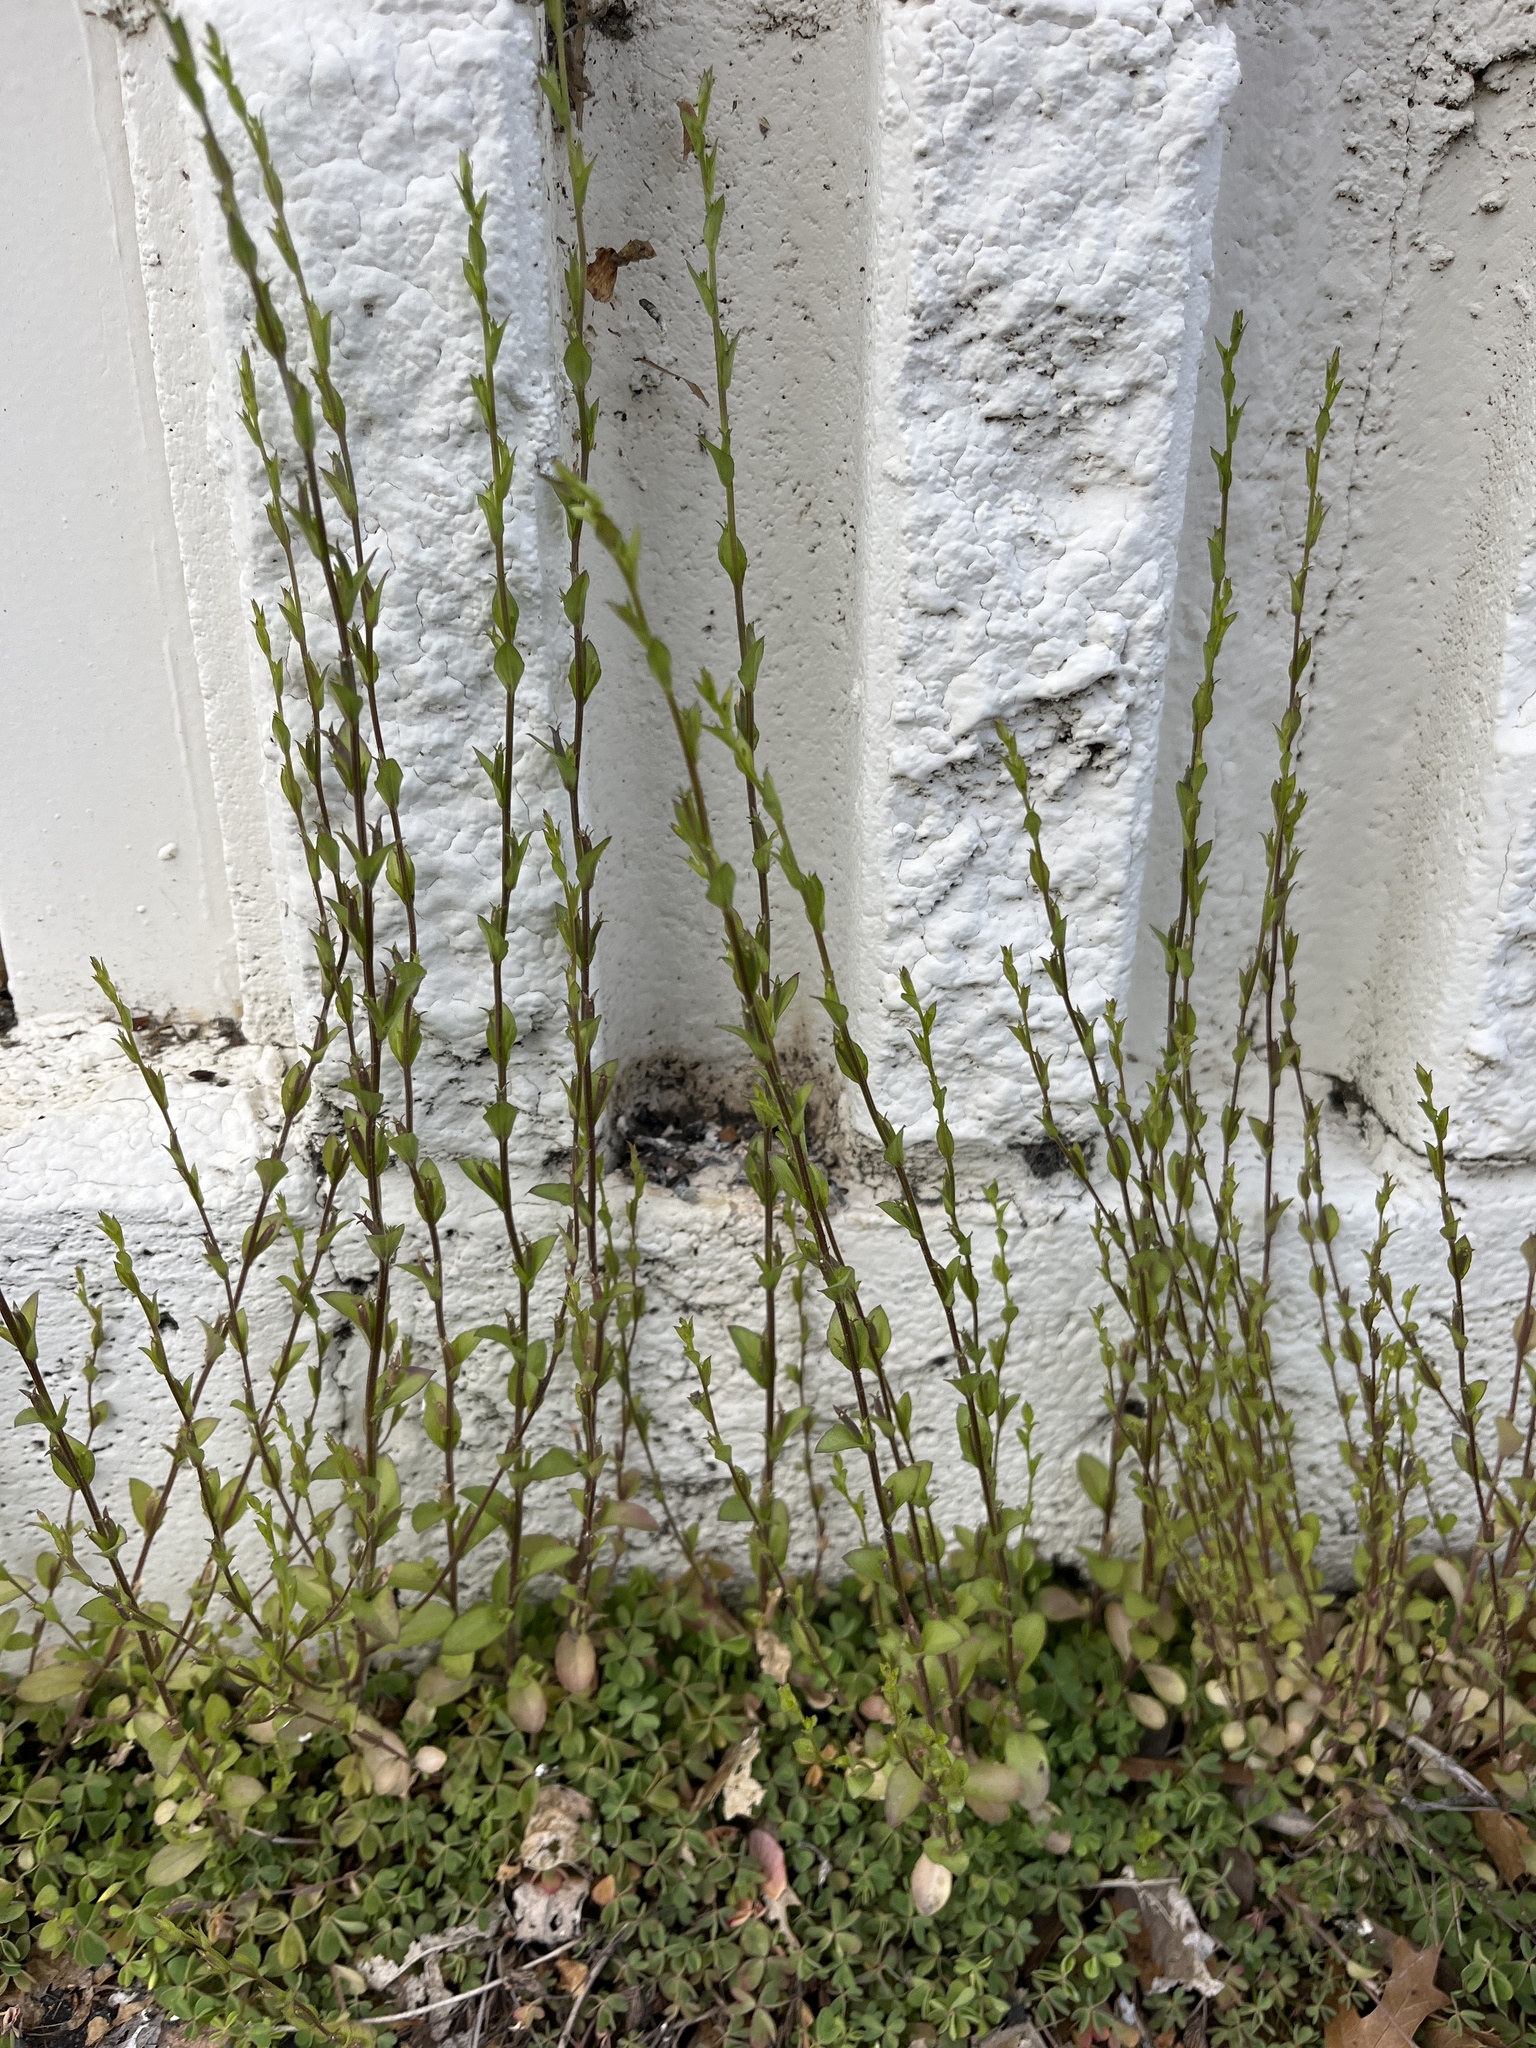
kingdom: Plantae
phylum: Tracheophyta
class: Magnoliopsida
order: Asterales
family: Campanulaceae
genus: Triodanis
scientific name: Triodanis biflora
